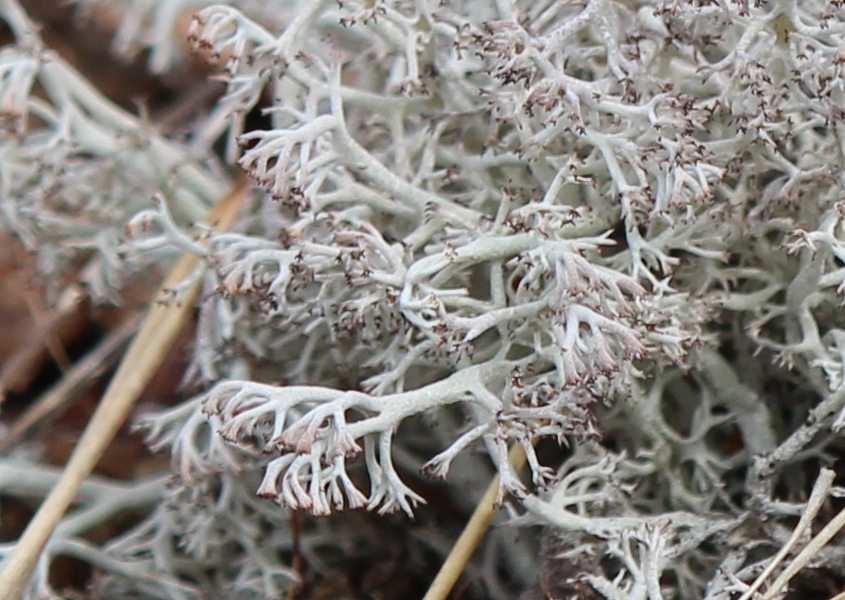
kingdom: Fungi
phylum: Ascomycota
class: Lecanoromycetes
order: Lecanorales
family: Cladoniaceae
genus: Cladonia
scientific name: Cladonia rangiferina
